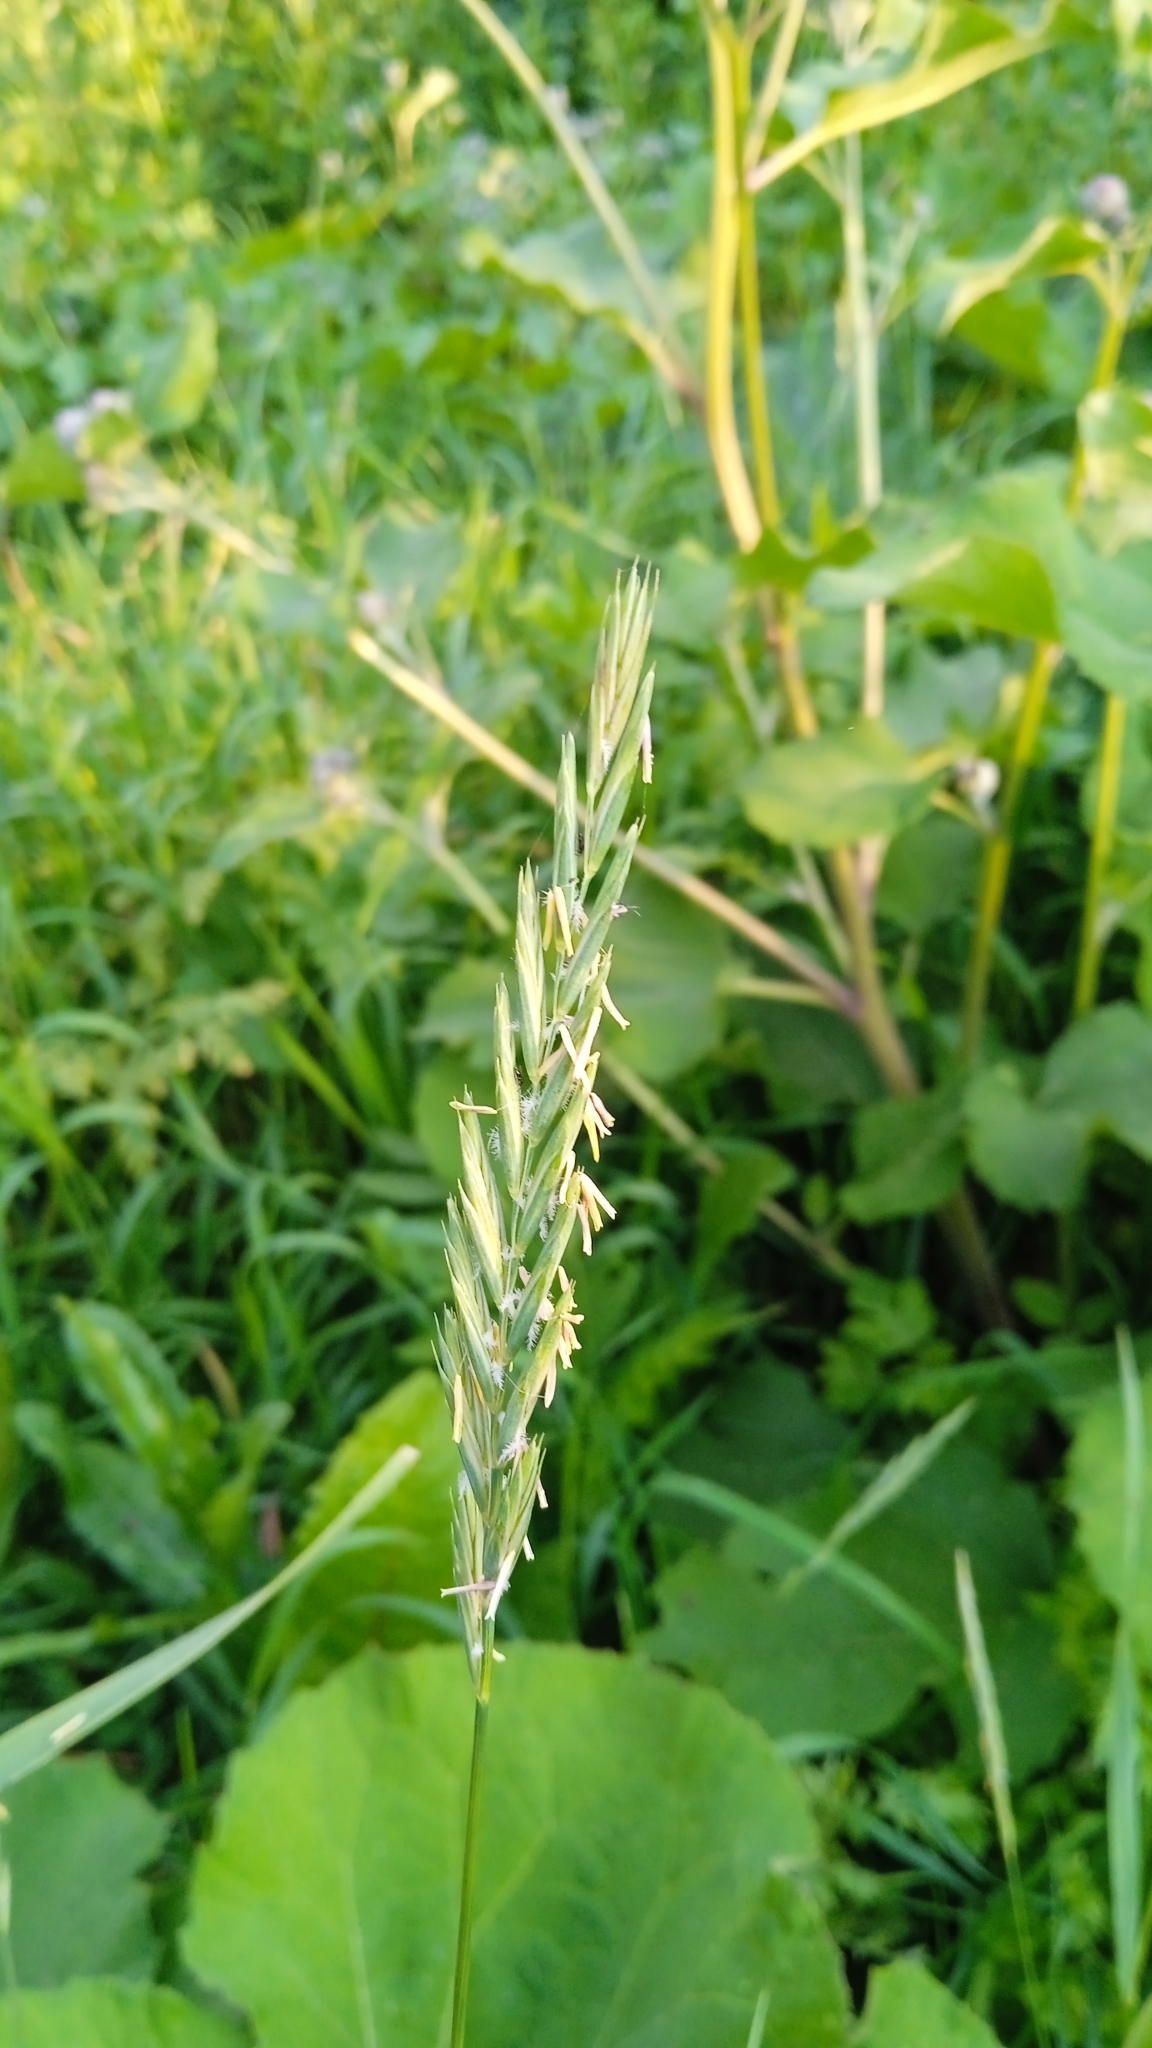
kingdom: Plantae
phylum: Tracheophyta
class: Liliopsida
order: Poales
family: Poaceae
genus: Elymus
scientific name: Elymus repens
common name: Quackgrass
